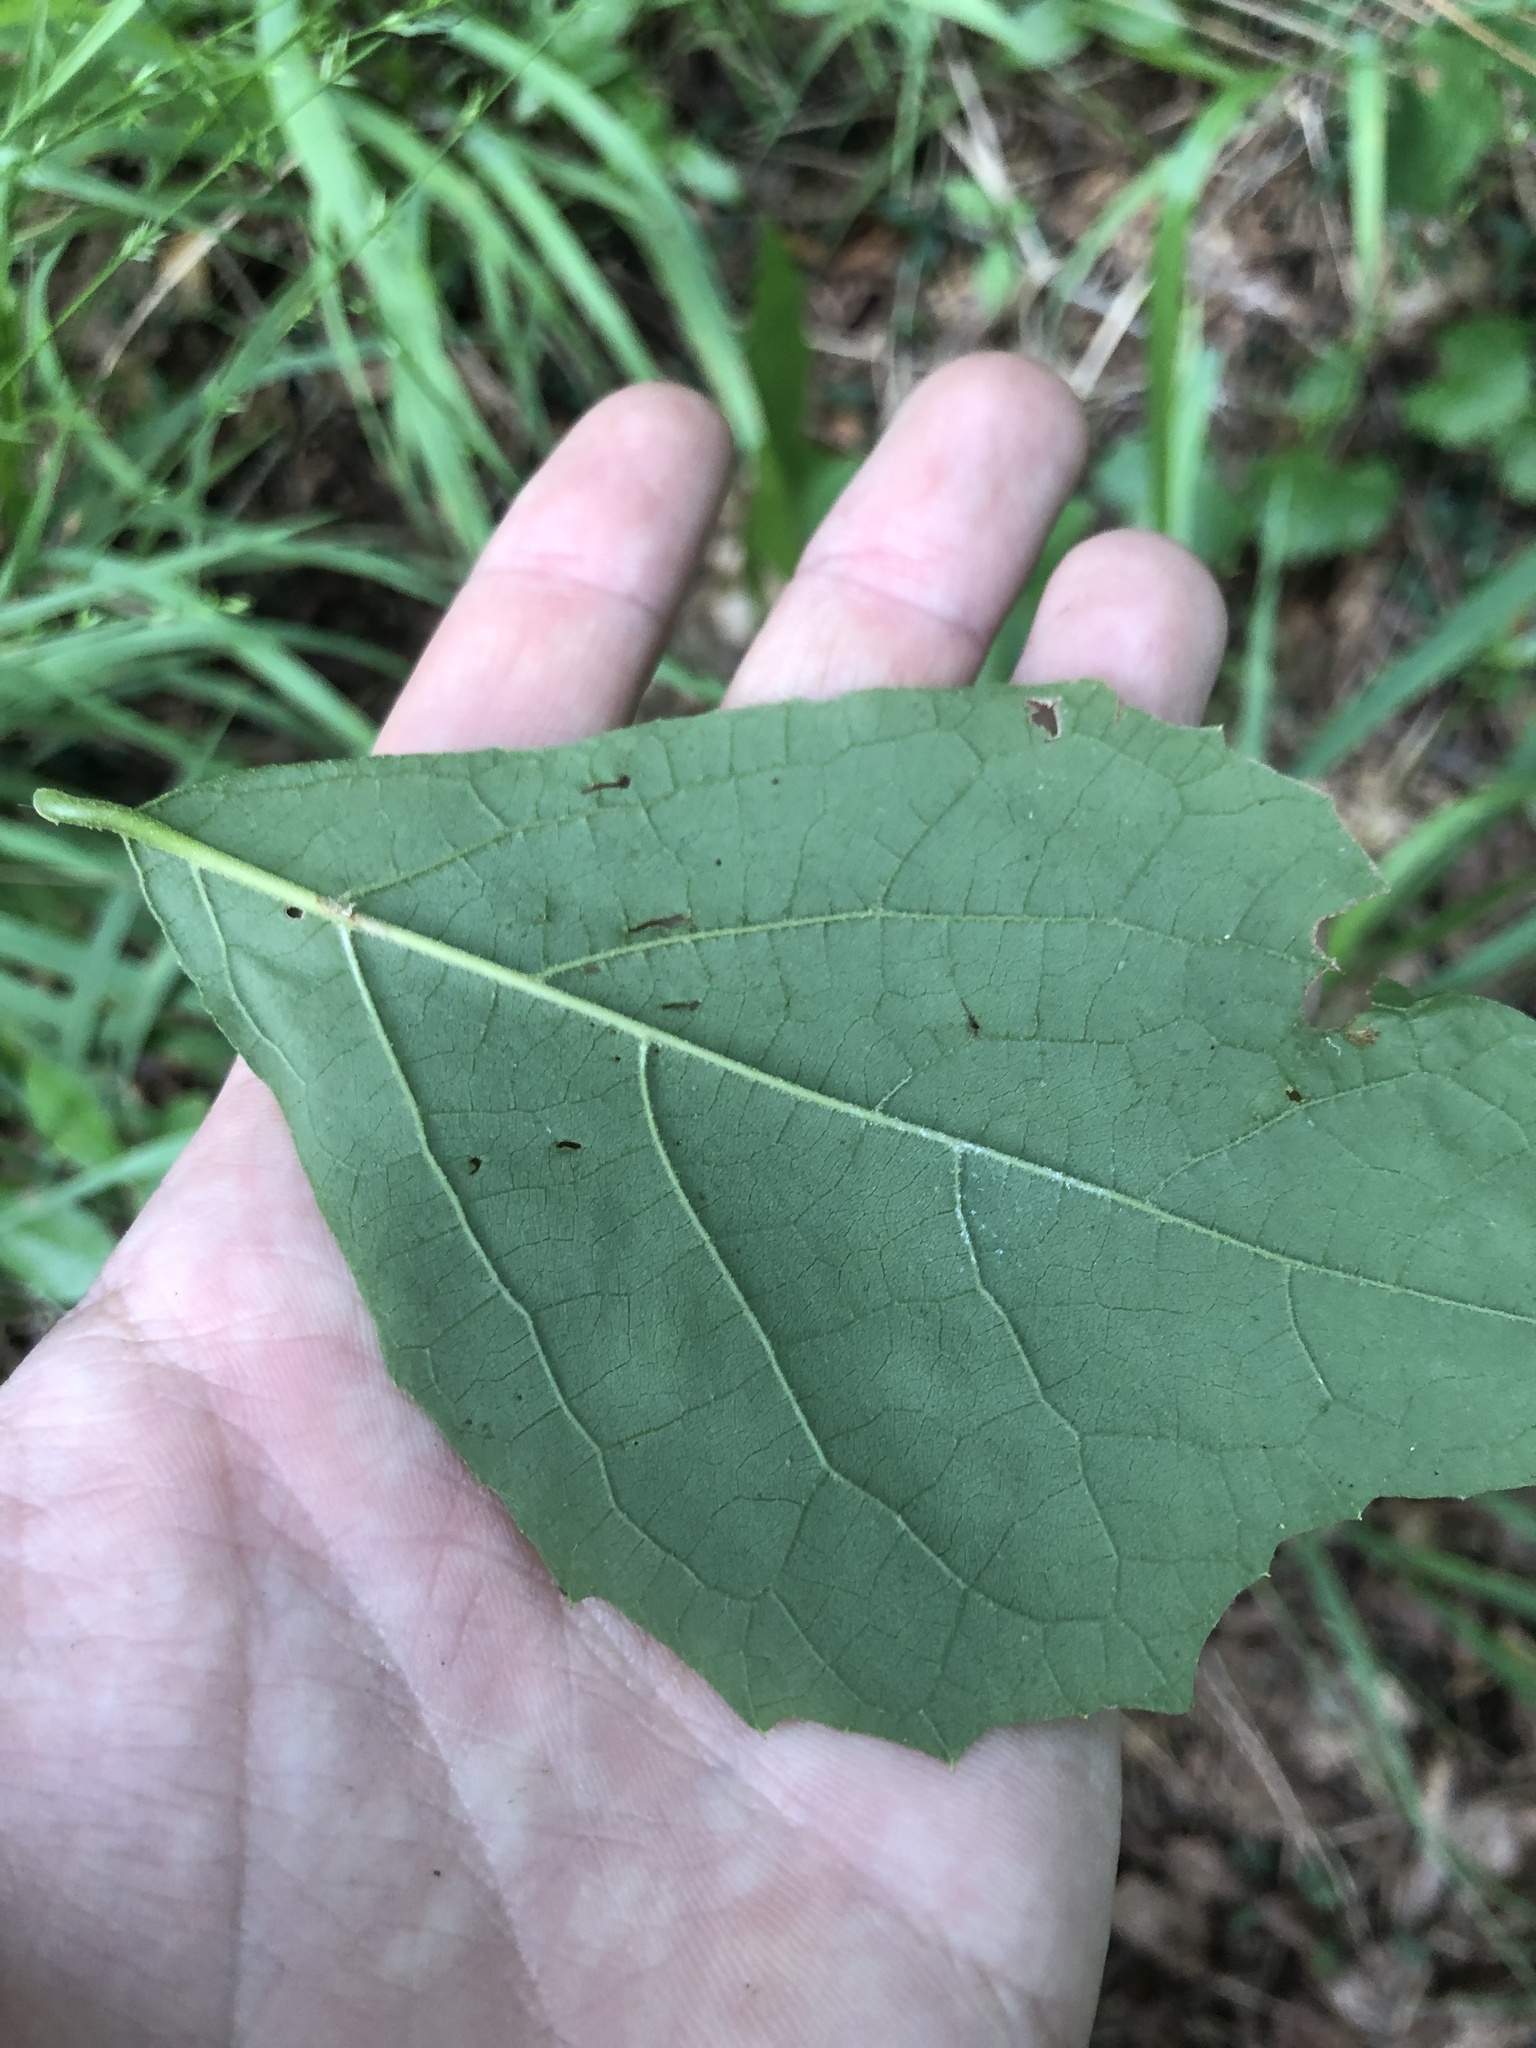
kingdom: Plantae
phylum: Tracheophyta
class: Magnoliopsida
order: Ericales
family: Styracaceae
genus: Styrax
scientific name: Styrax grandifolius
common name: Big-leaf snowbell
